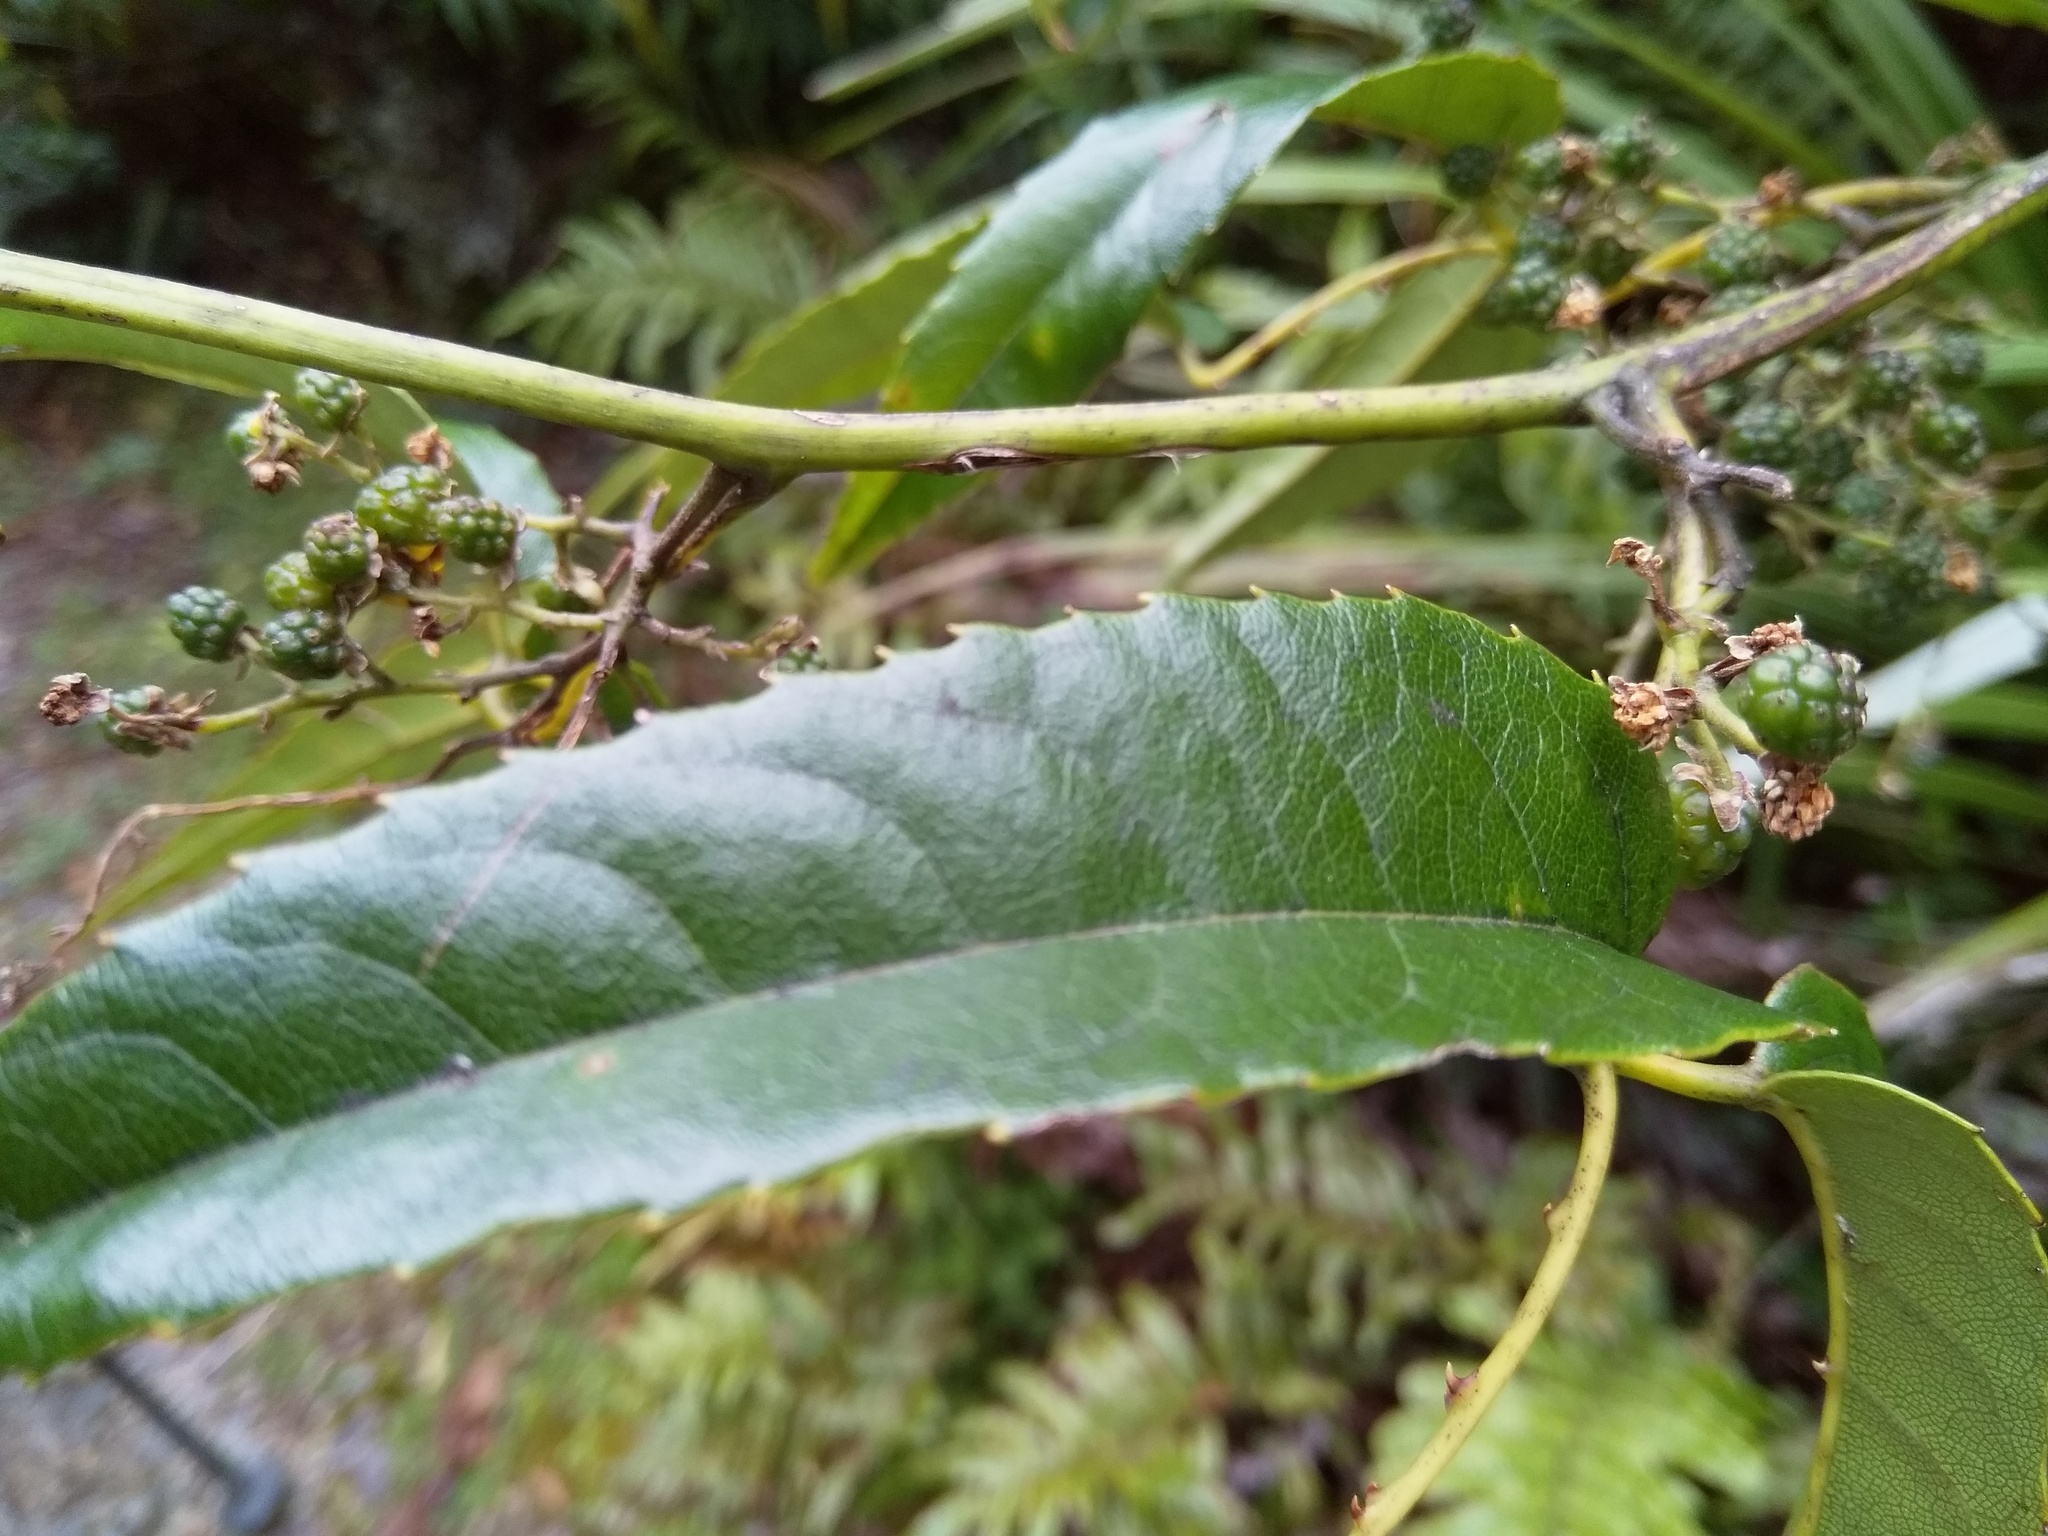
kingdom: Plantae
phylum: Tracheophyta
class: Magnoliopsida
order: Rosales
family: Rosaceae
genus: Rubus
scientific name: Rubus cissoides
